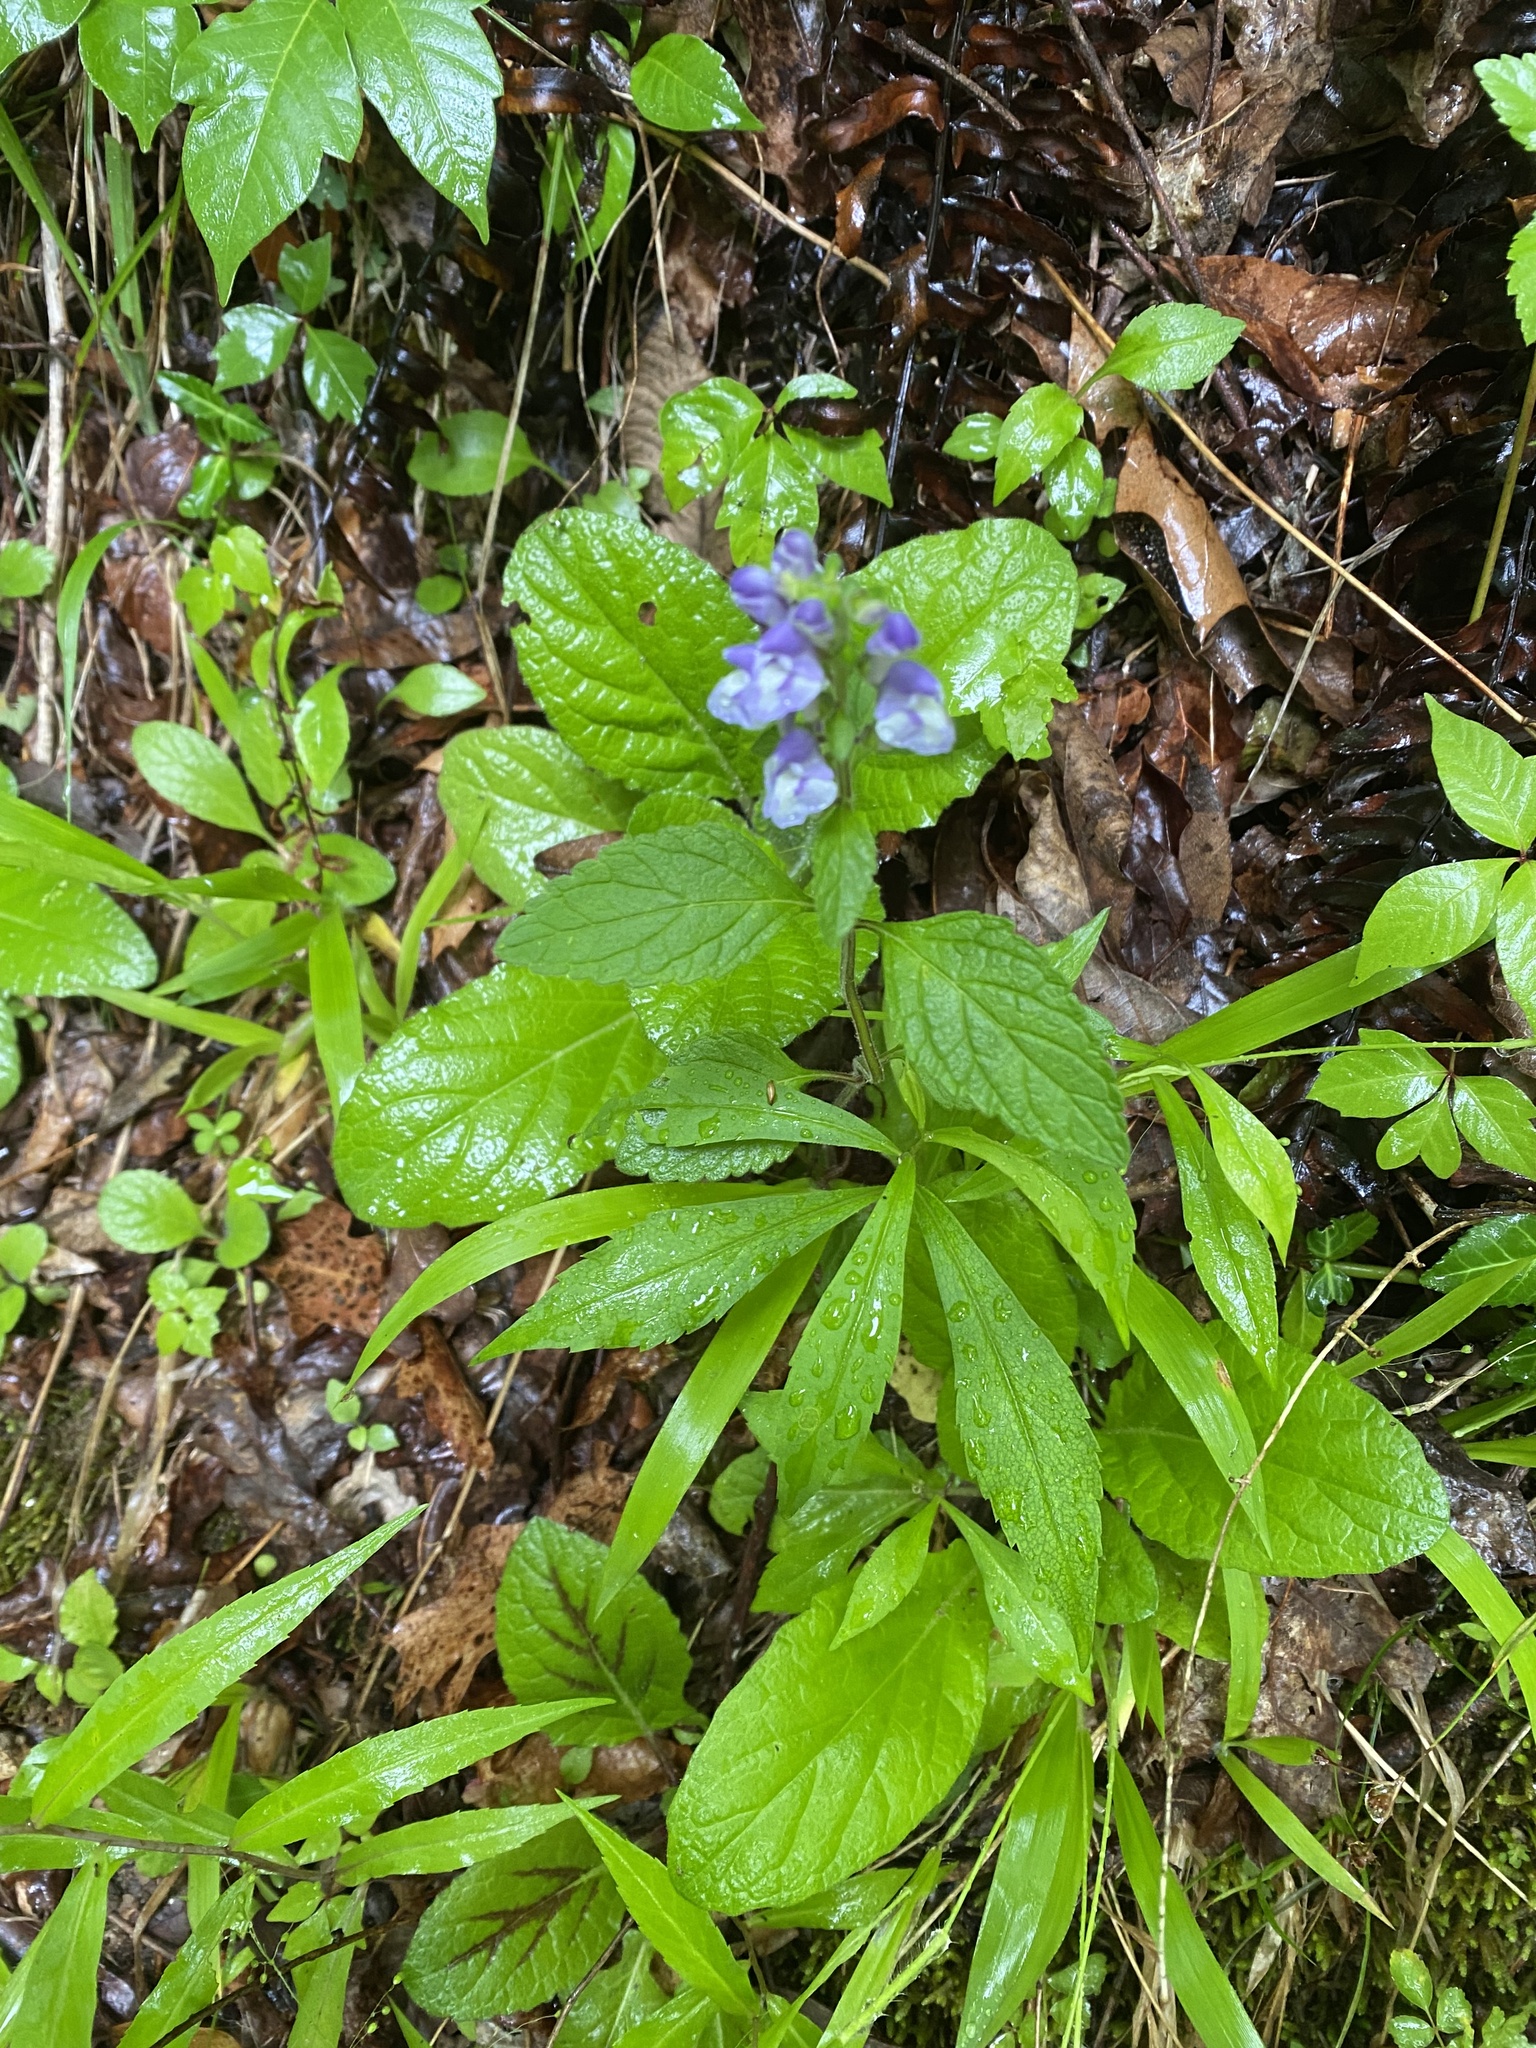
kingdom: Plantae
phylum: Tracheophyta
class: Magnoliopsida
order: Lamiales
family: Lamiaceae
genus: Scutellaria
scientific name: Scutellaria elliptica
